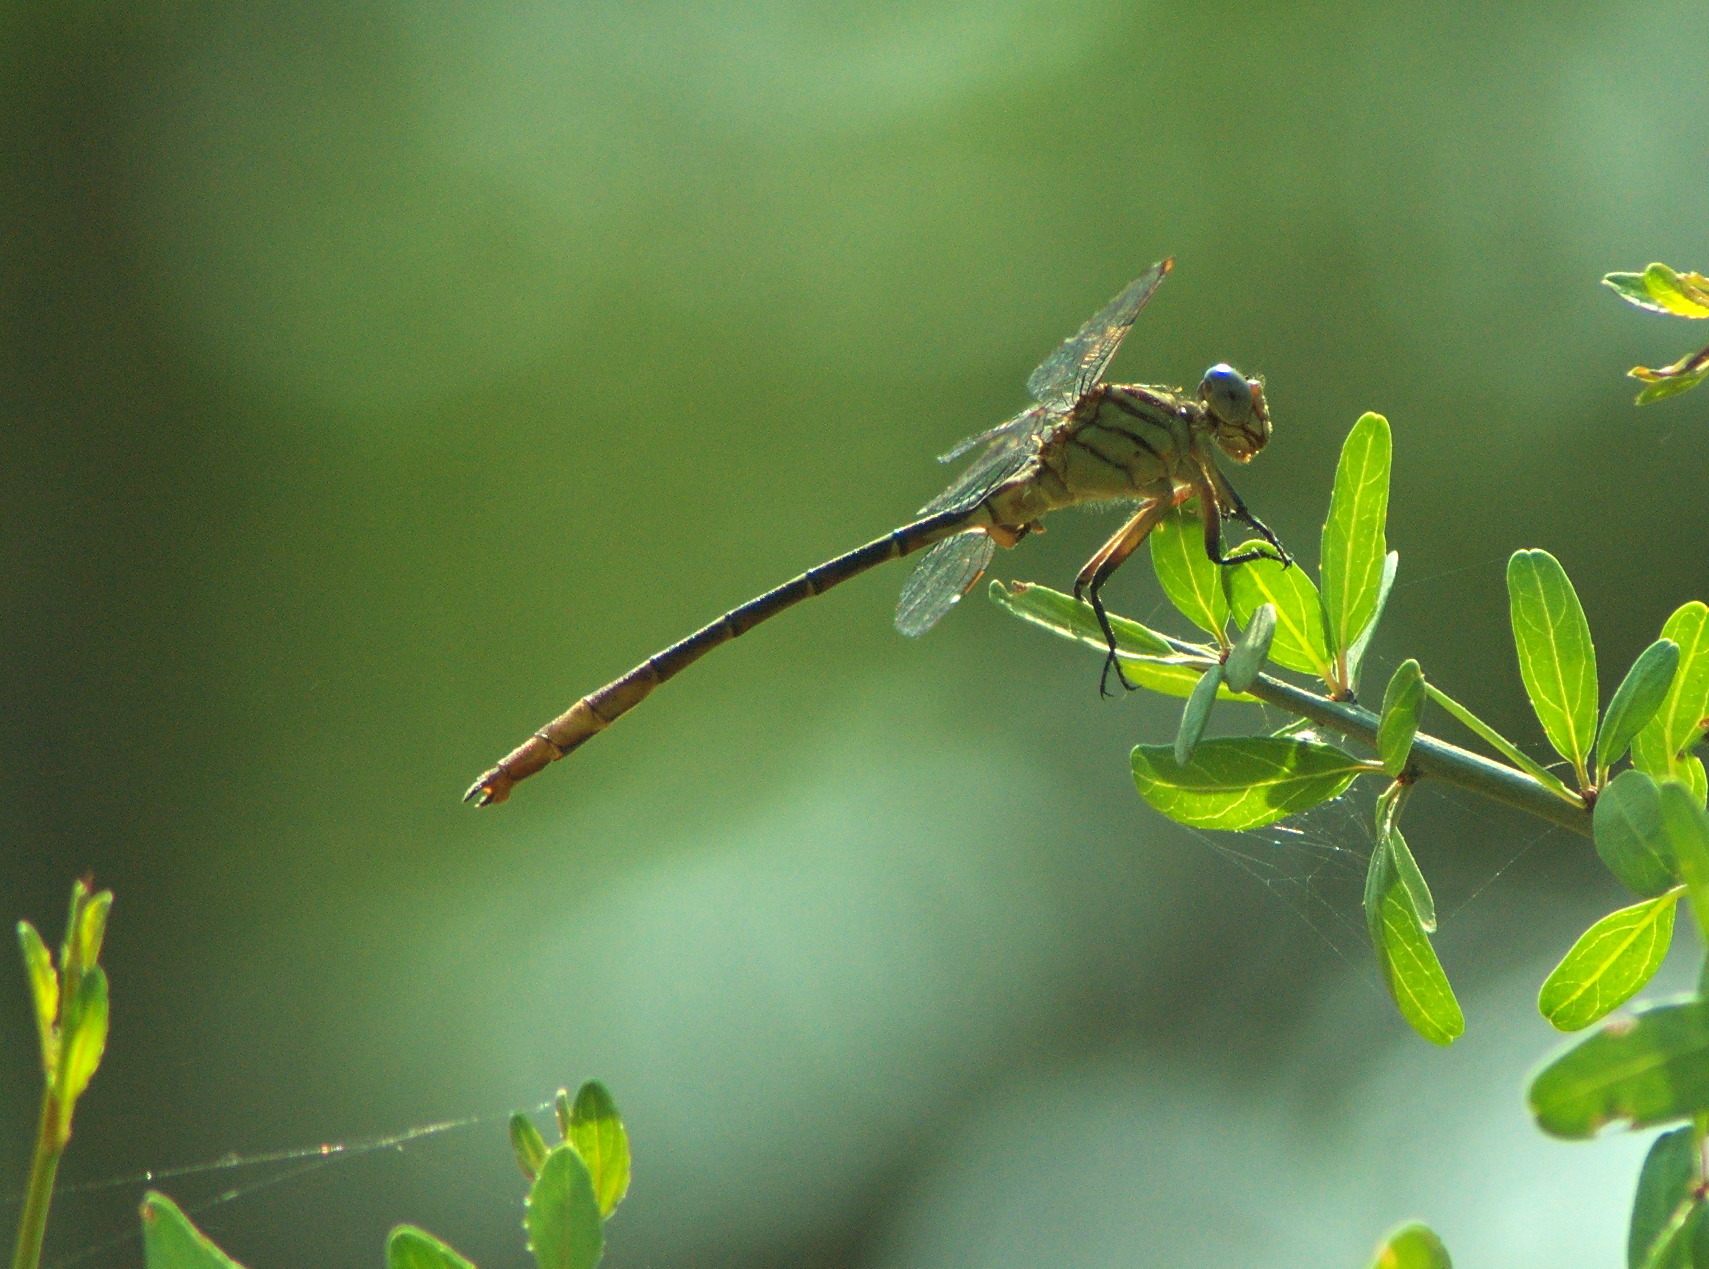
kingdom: Animalia
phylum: Arthropoda
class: Insecta
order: Odonata
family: Gomphidae
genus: Stylurus
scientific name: Stylurus plagiatus
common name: Russet-tipped clubtail
